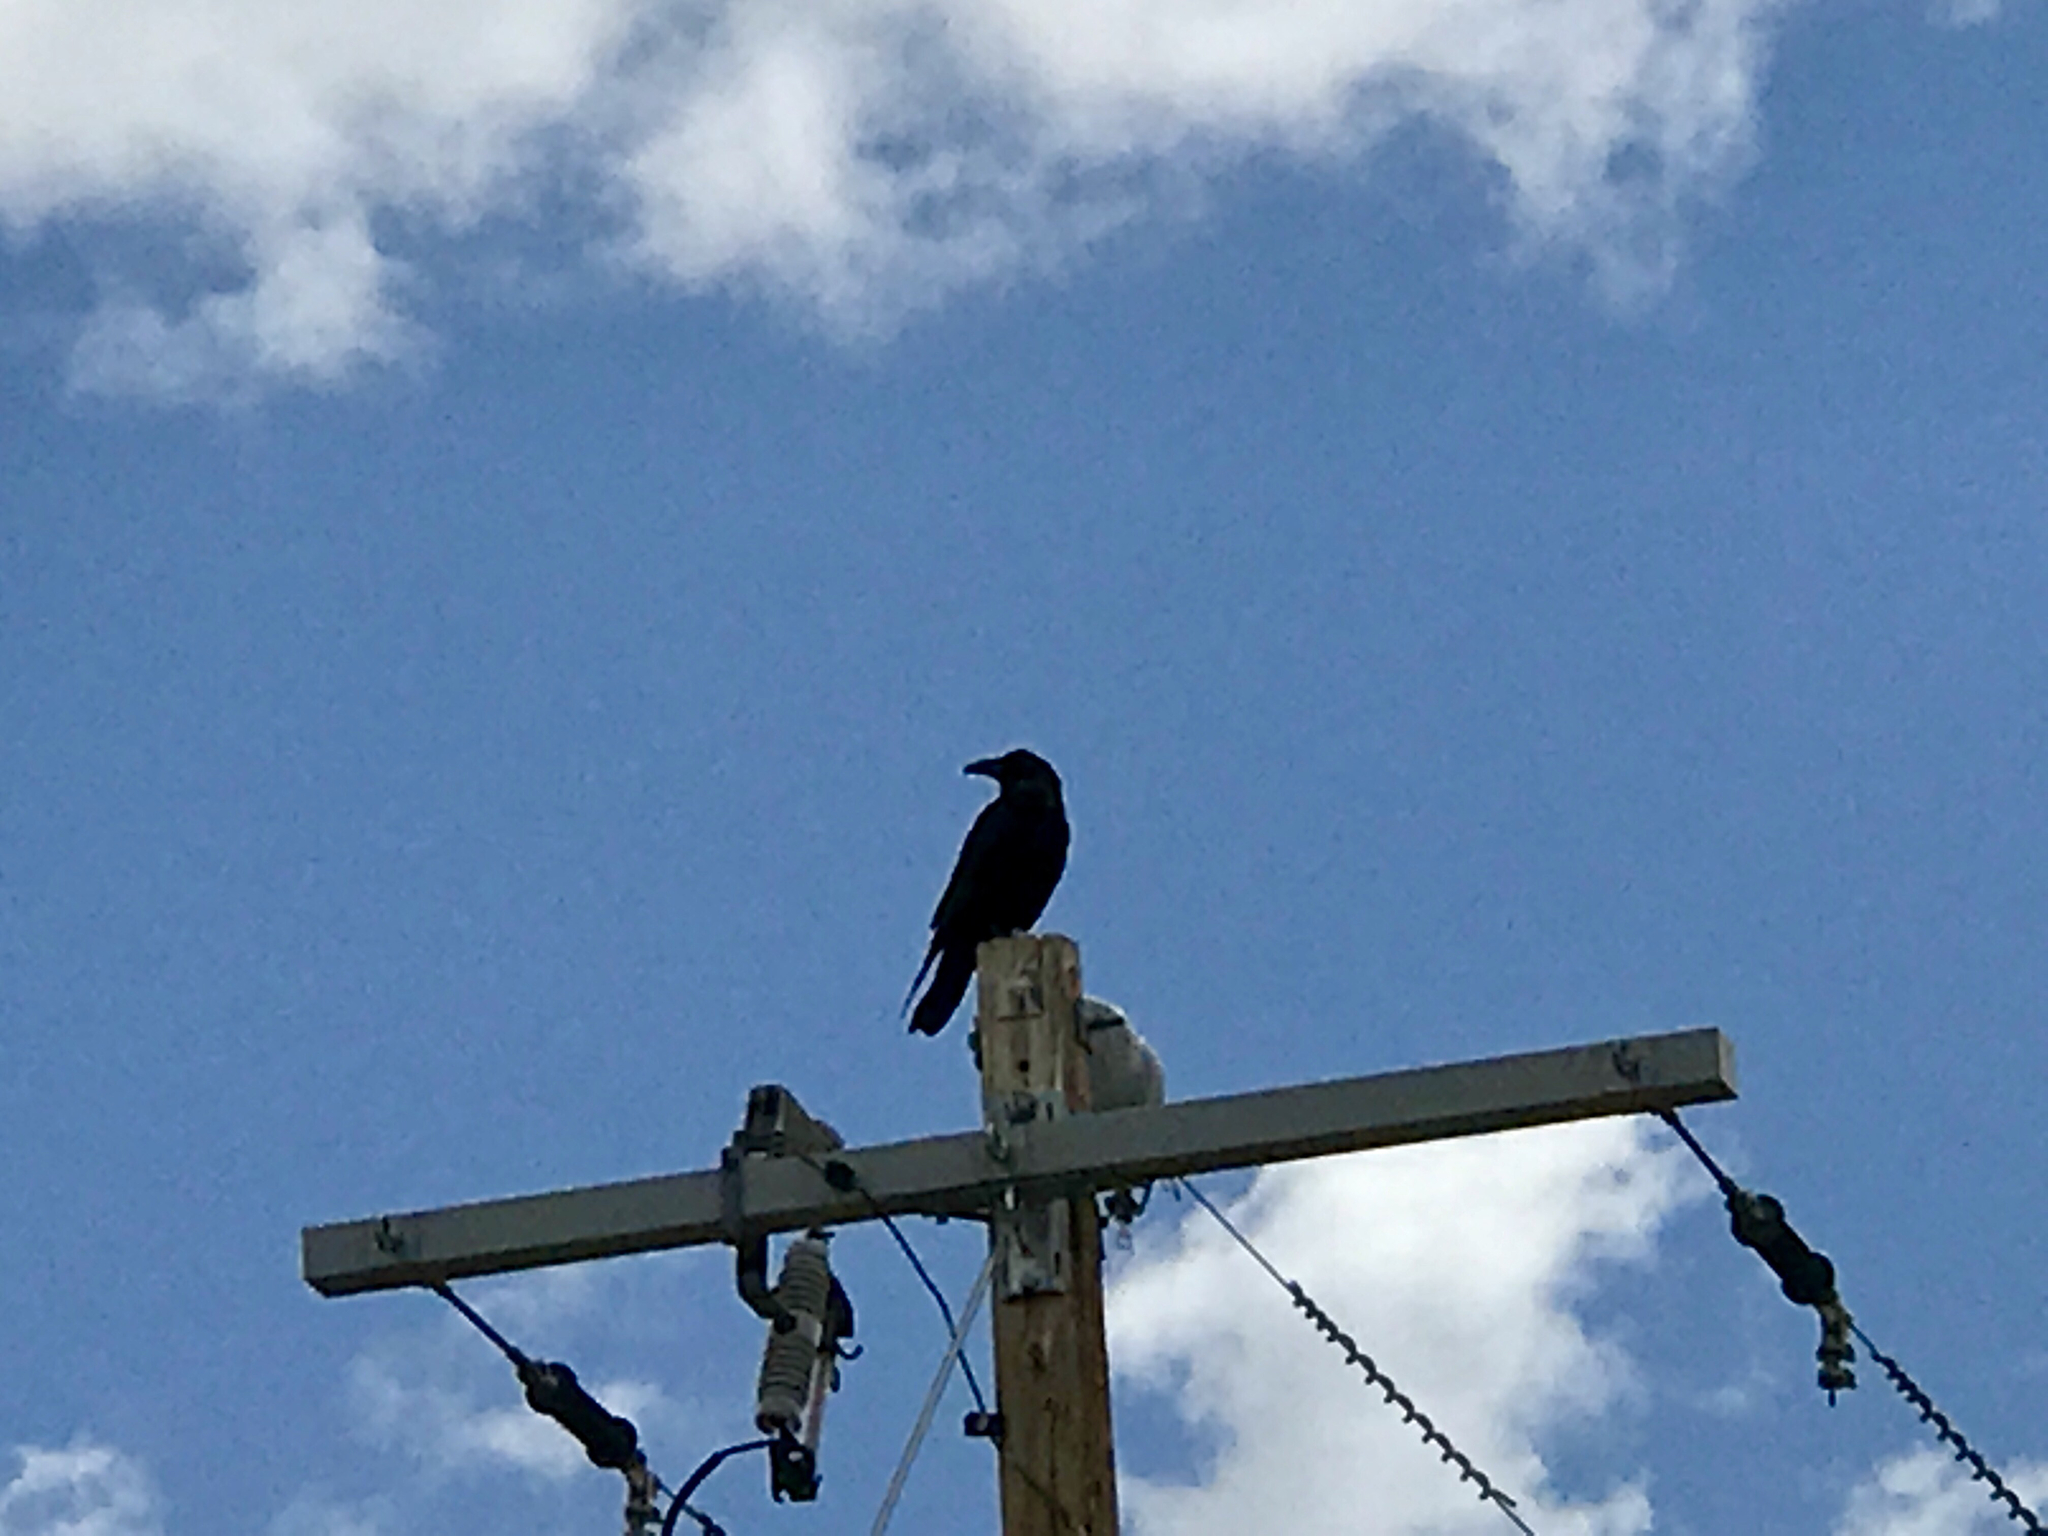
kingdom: Animalia
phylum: Chordata
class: Aves
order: Passeriformes
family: Corvidae
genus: Corvus
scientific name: Corvus corax
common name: Common raven
